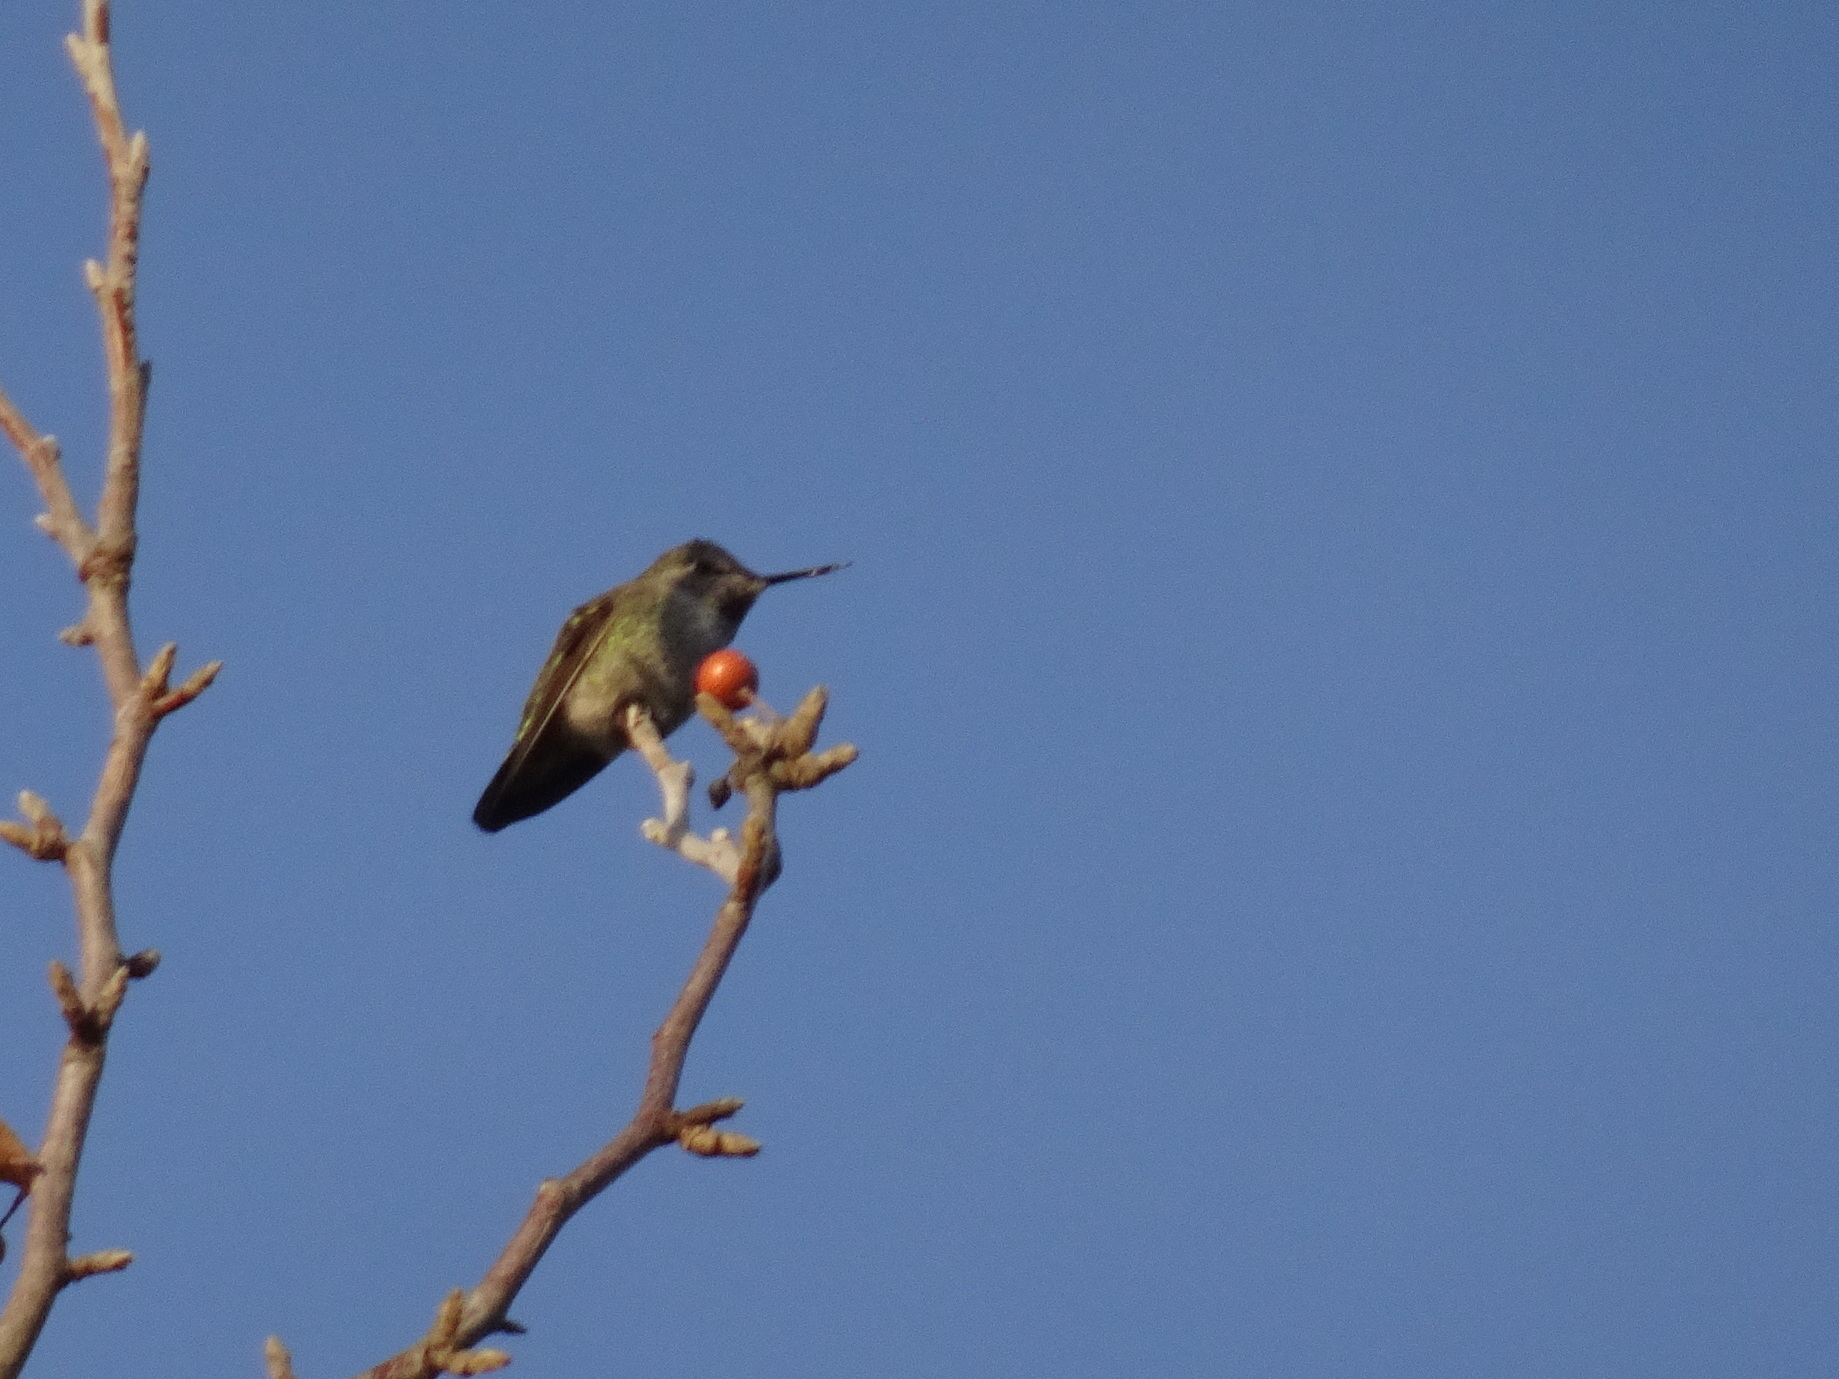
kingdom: Animalia
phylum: Chordata
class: Aves
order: Apodiformes
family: Trochilidae
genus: Calypte
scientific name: Calypte anna
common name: Anna's hummingbird
